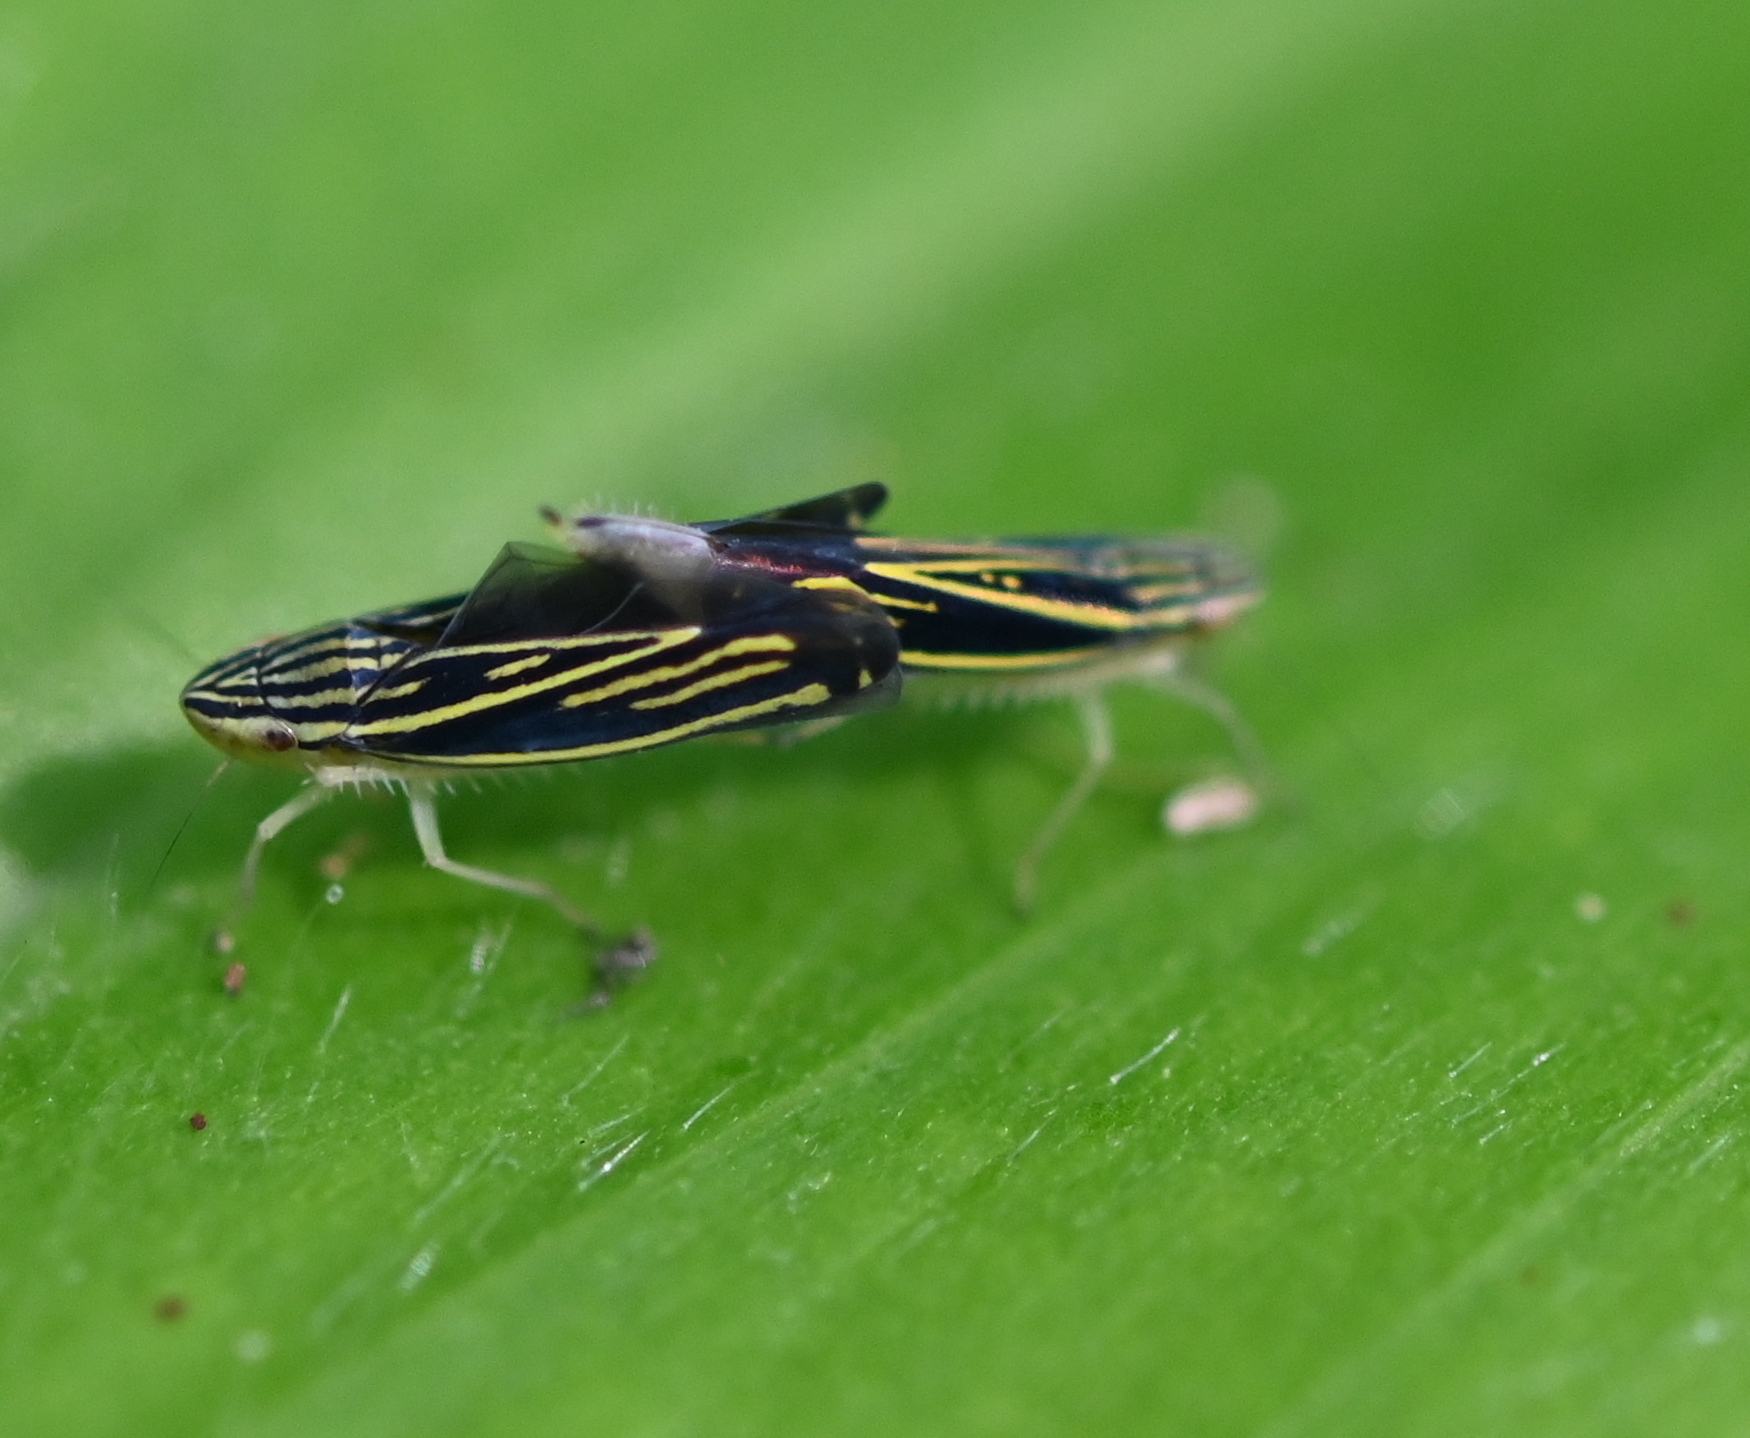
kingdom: Animalia
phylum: Arthropoda
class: Insecta
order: Hemiptera
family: Cicadellidae
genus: Sibovia
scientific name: Sibovia occatoria
